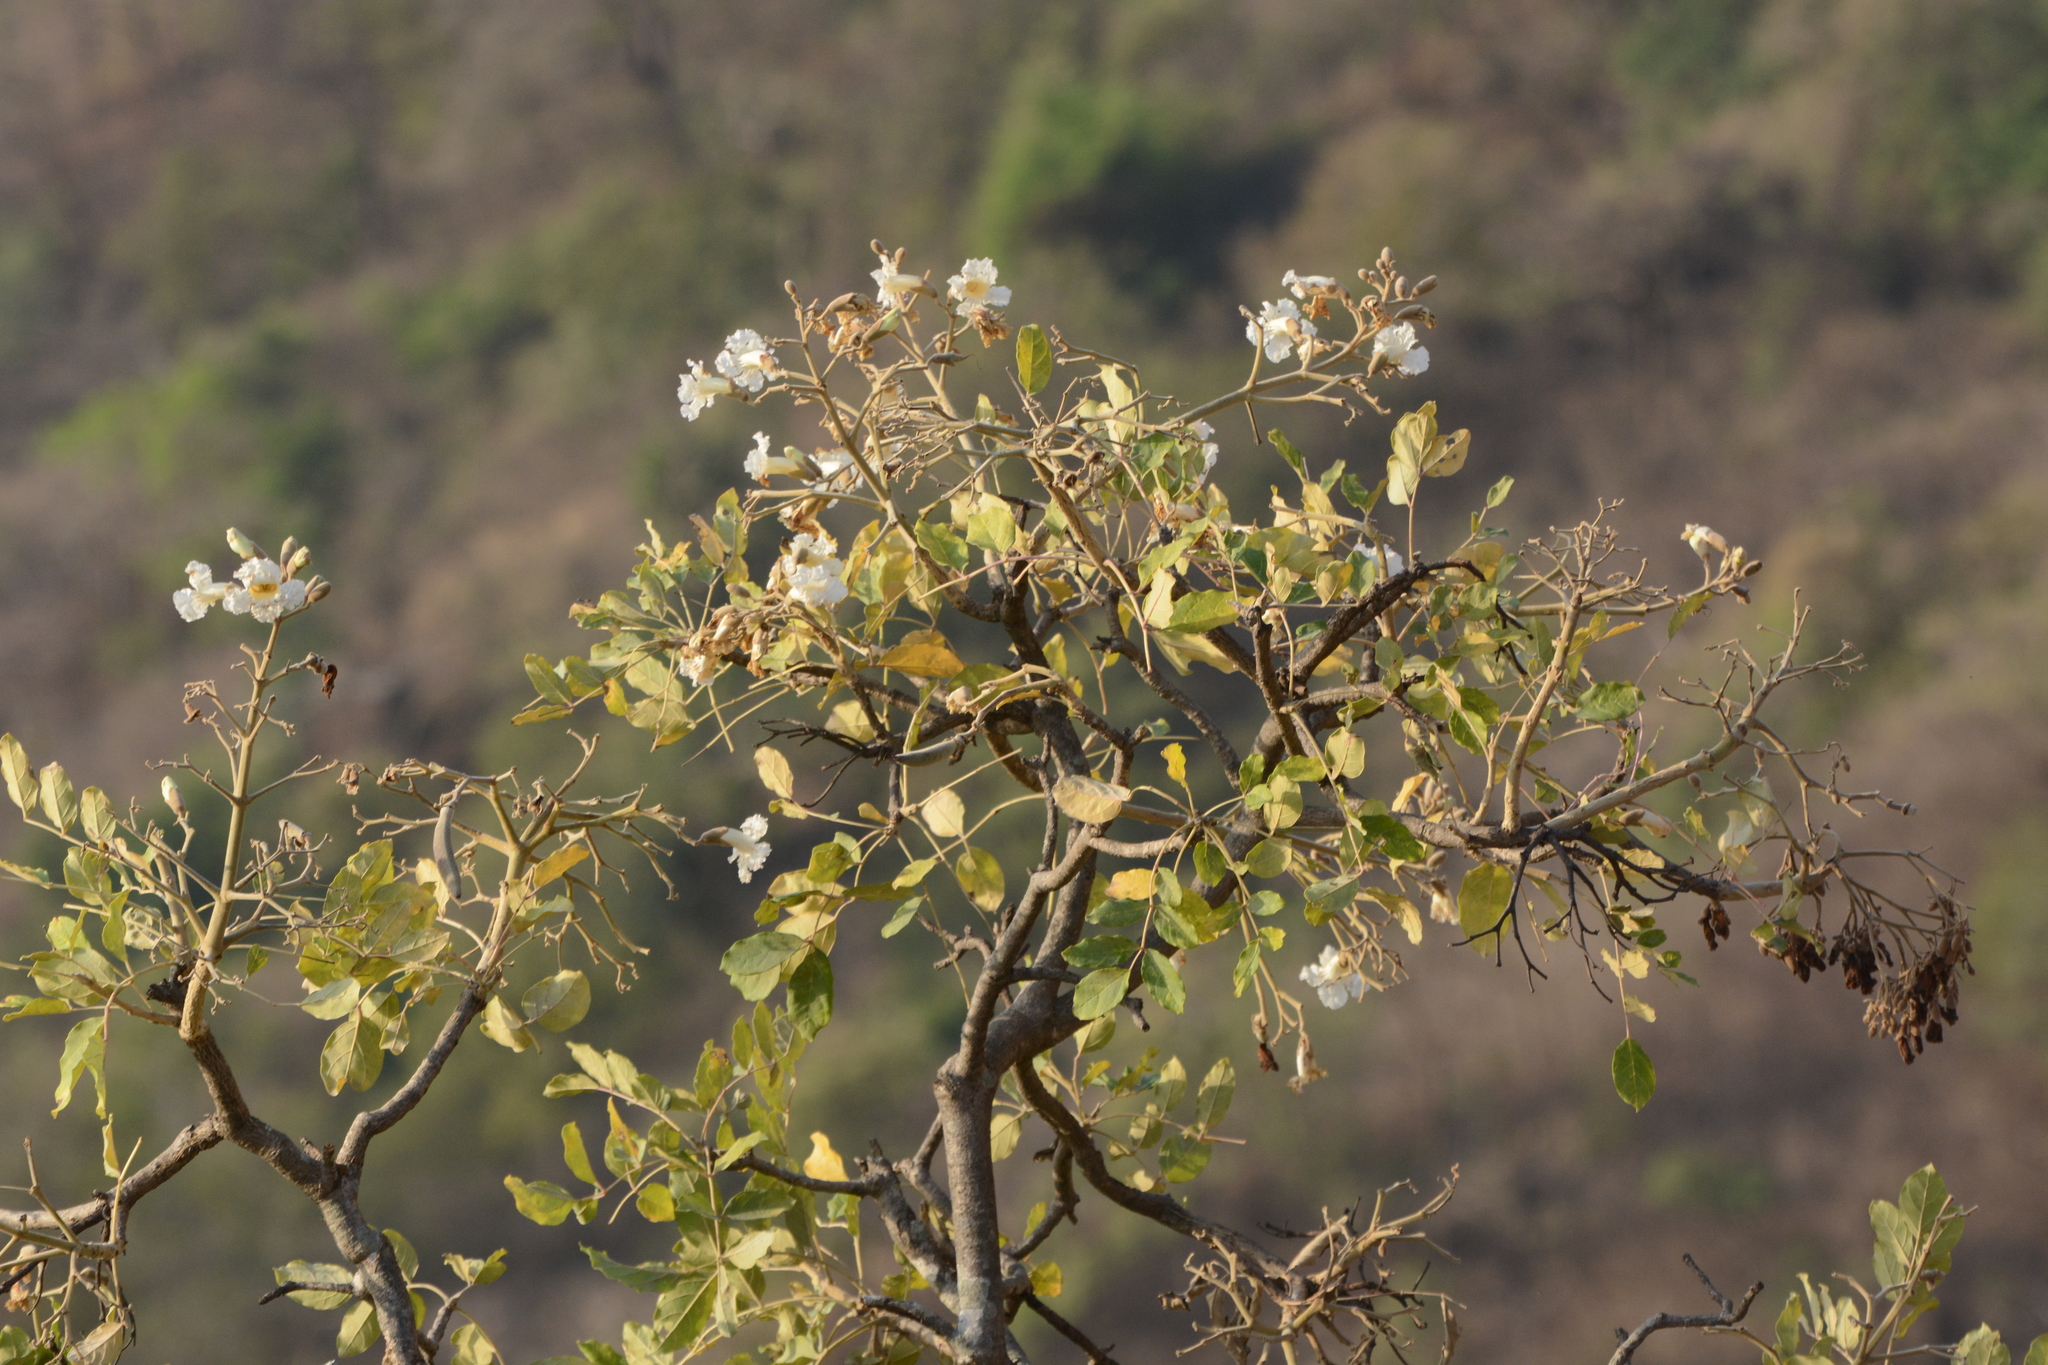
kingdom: Plantae
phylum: Tracheophyta
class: Magnoliopsida
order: Lamiales
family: Bignoniaceae
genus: Heterophragma
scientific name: Heterophragma quadriloculare
